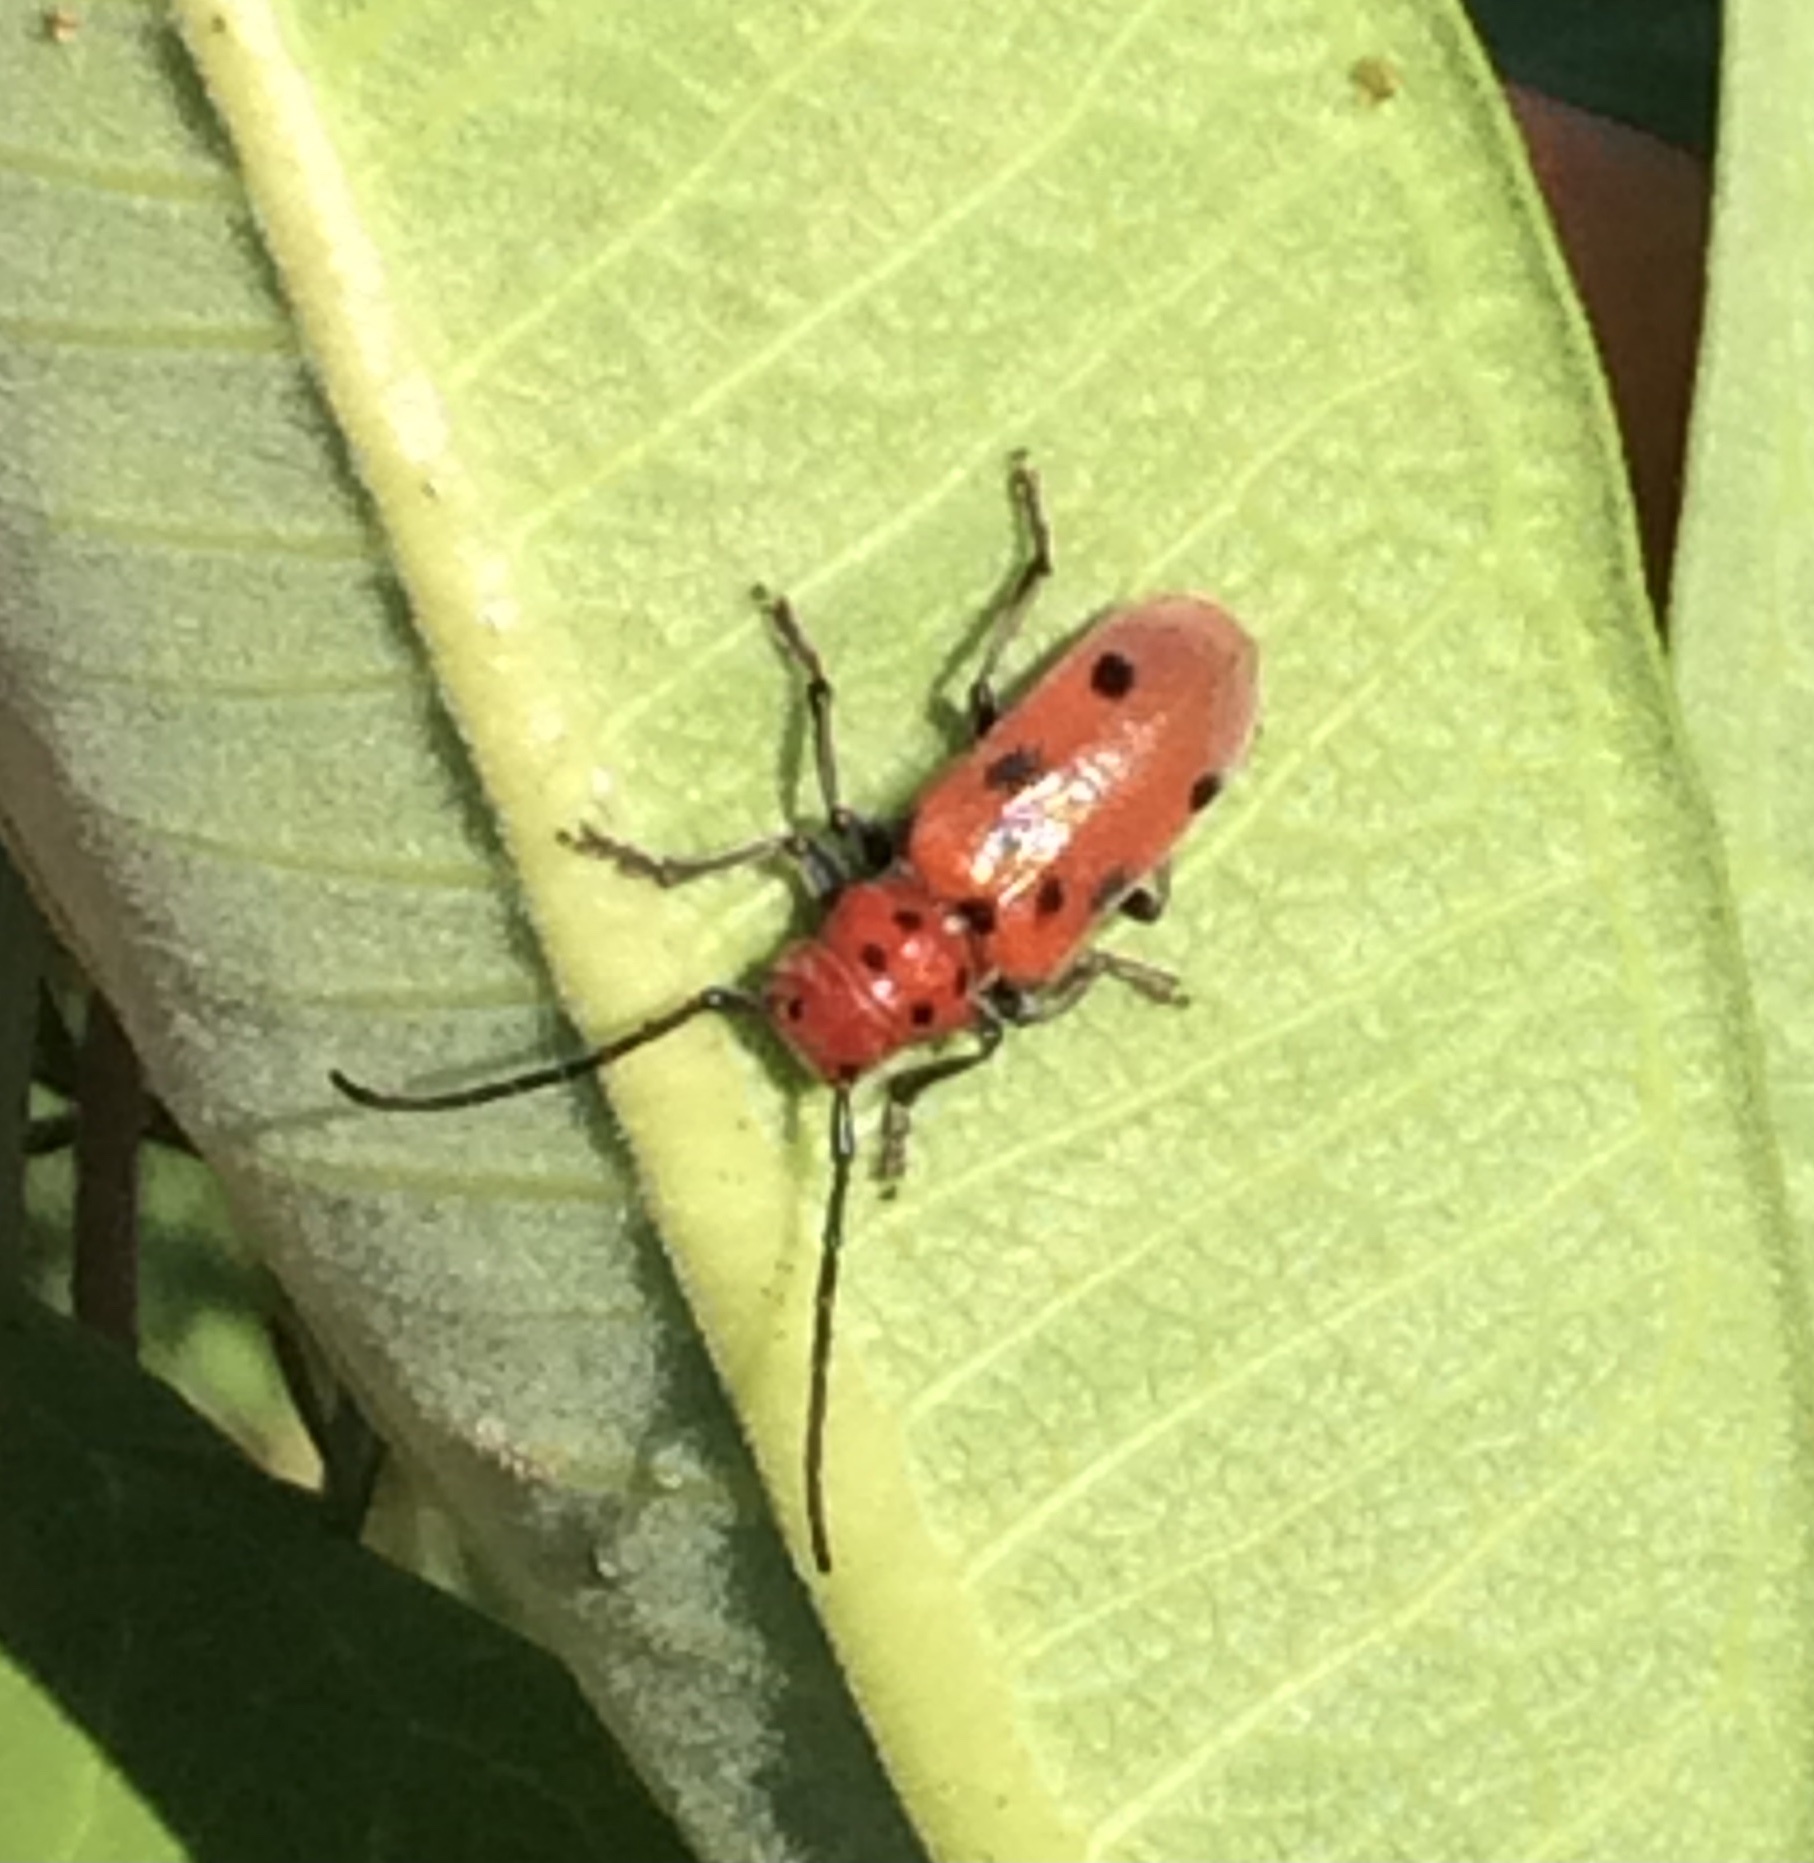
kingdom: Animalia
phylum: Arthropoda
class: Insecta
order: Coleoptera
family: Cerambycidae
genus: Tetraopes
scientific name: Tetraopes tetrophthalmus
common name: Red milkweed beetle
